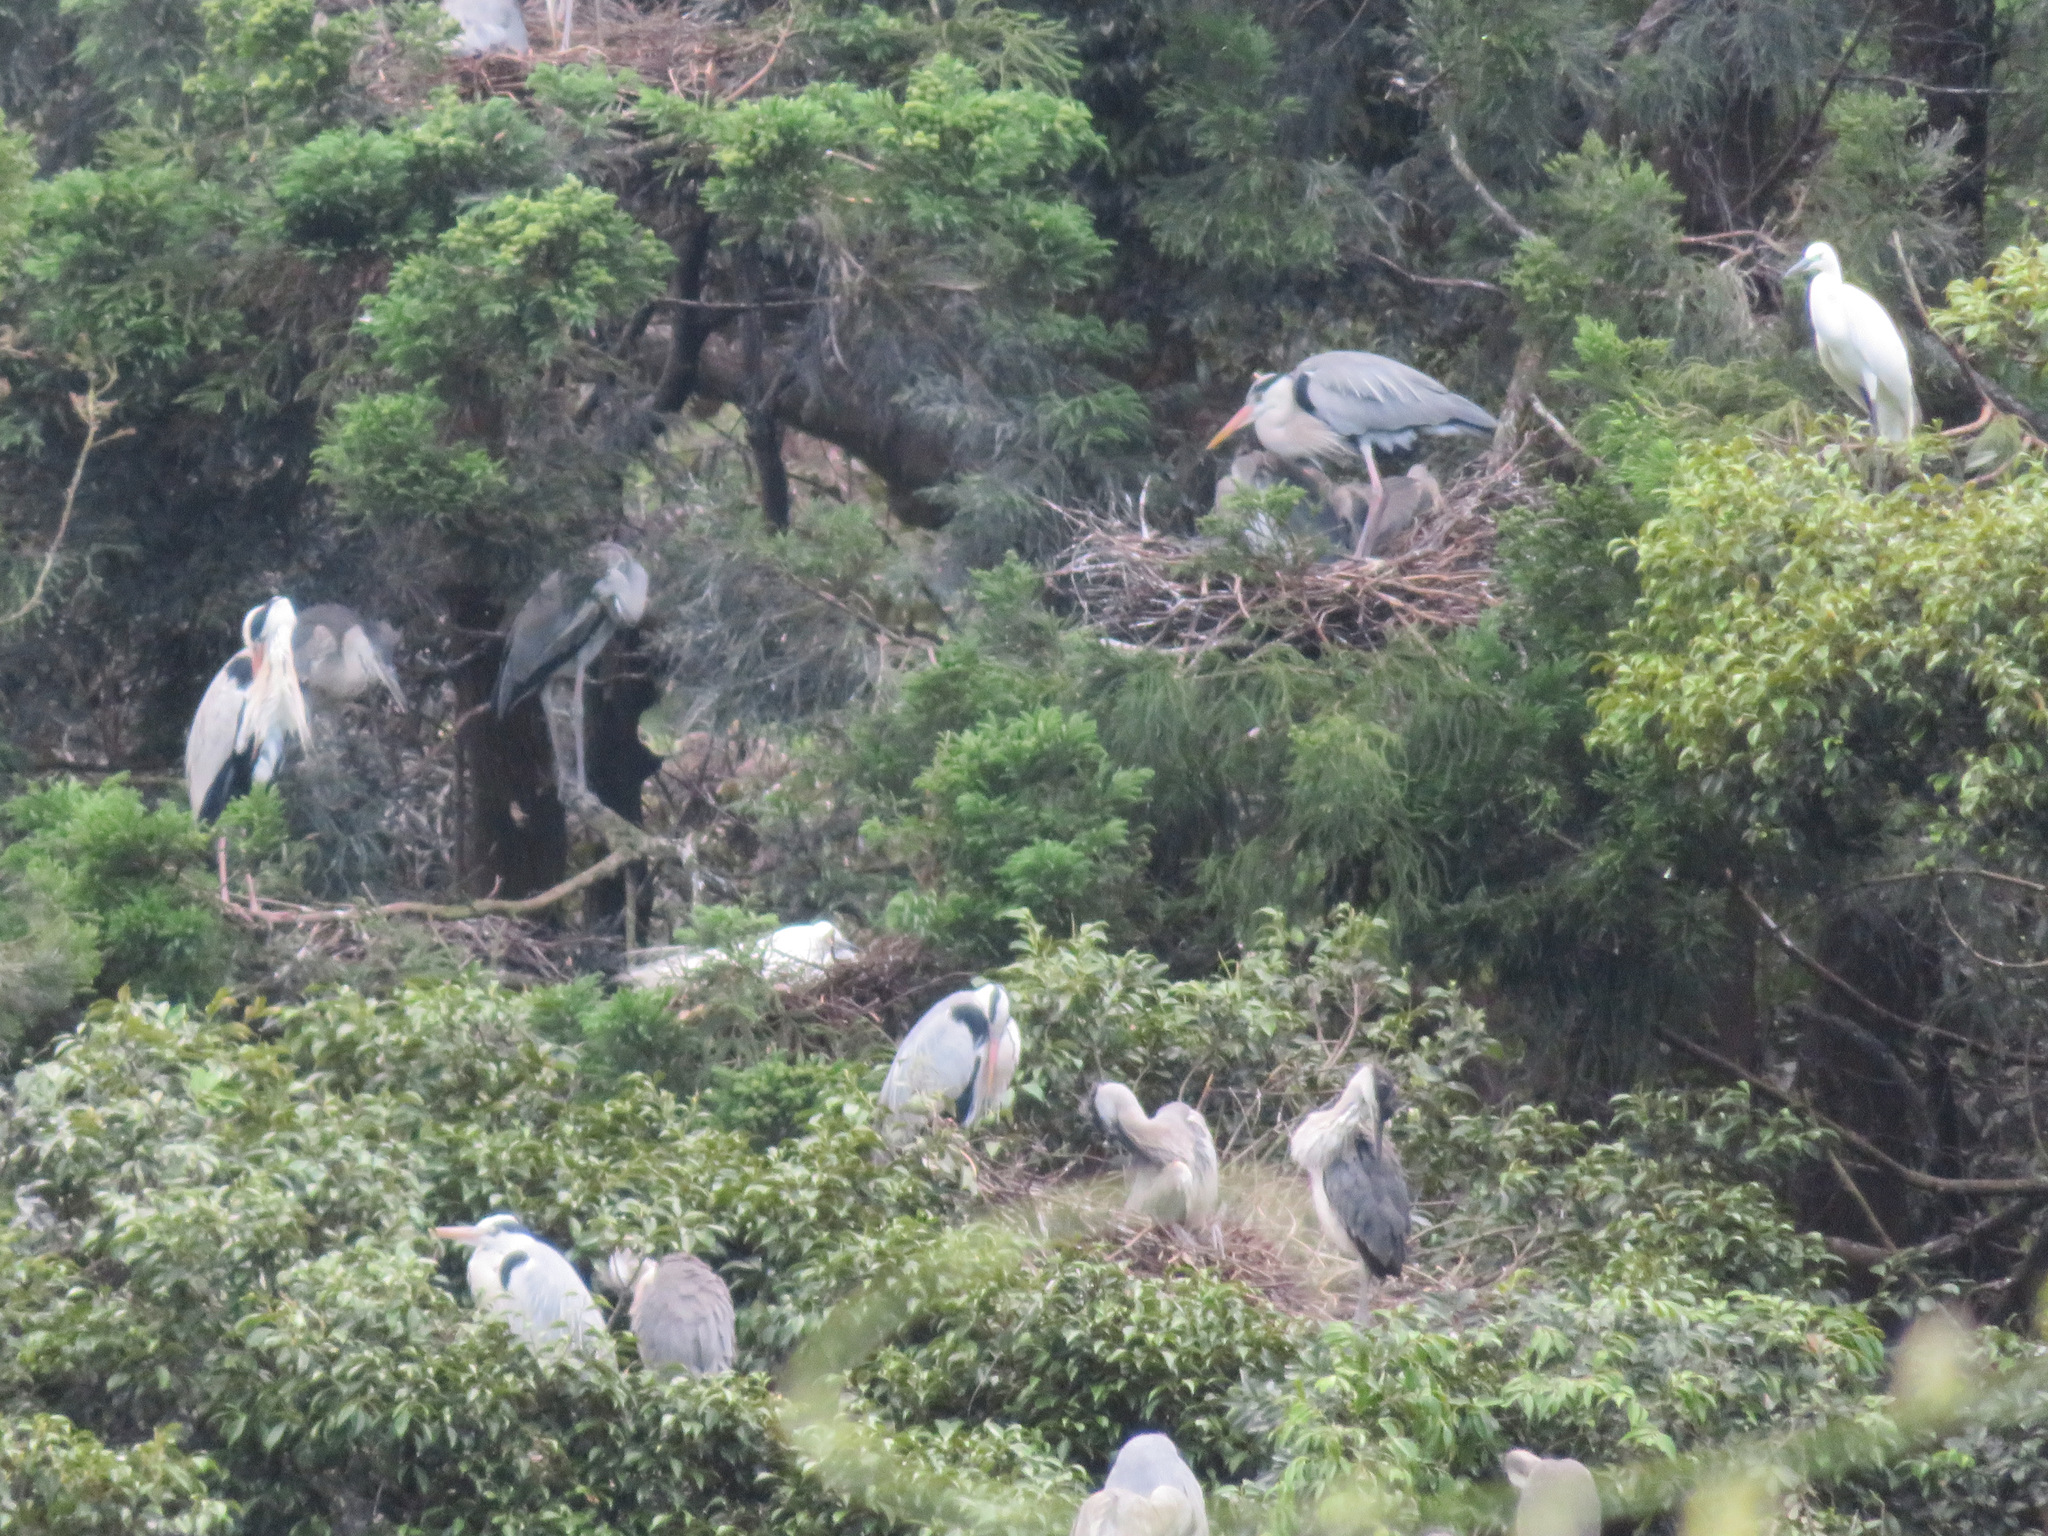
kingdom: Animalia
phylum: Chordata
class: Aves
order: Pelecaniformes
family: Ardeidae
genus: Ardea
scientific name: Ardea cinerea
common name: Grey heron
